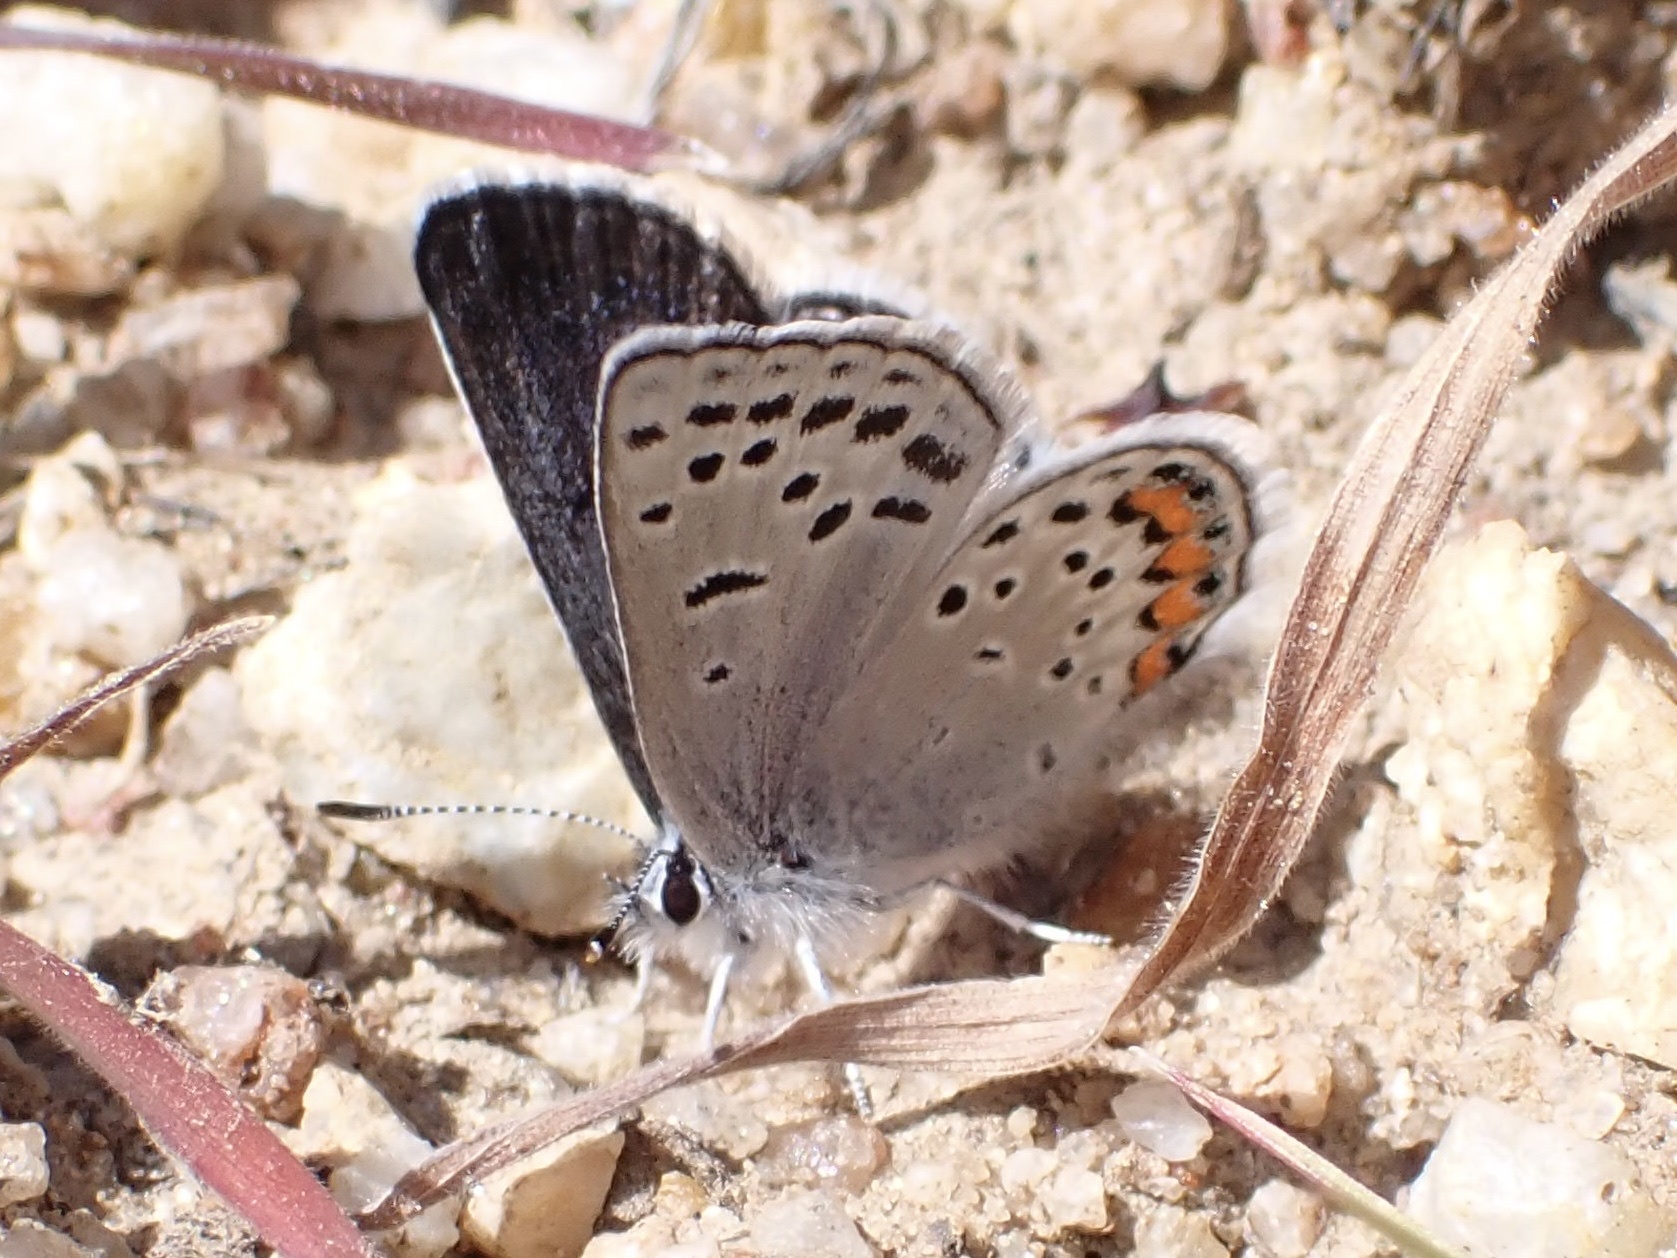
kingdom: Animalia
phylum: Arthropoda
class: Insecta
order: Lepidoptera
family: Lycaenidae
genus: Icaricia
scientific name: Icaricia acmon
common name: Acmon blue
